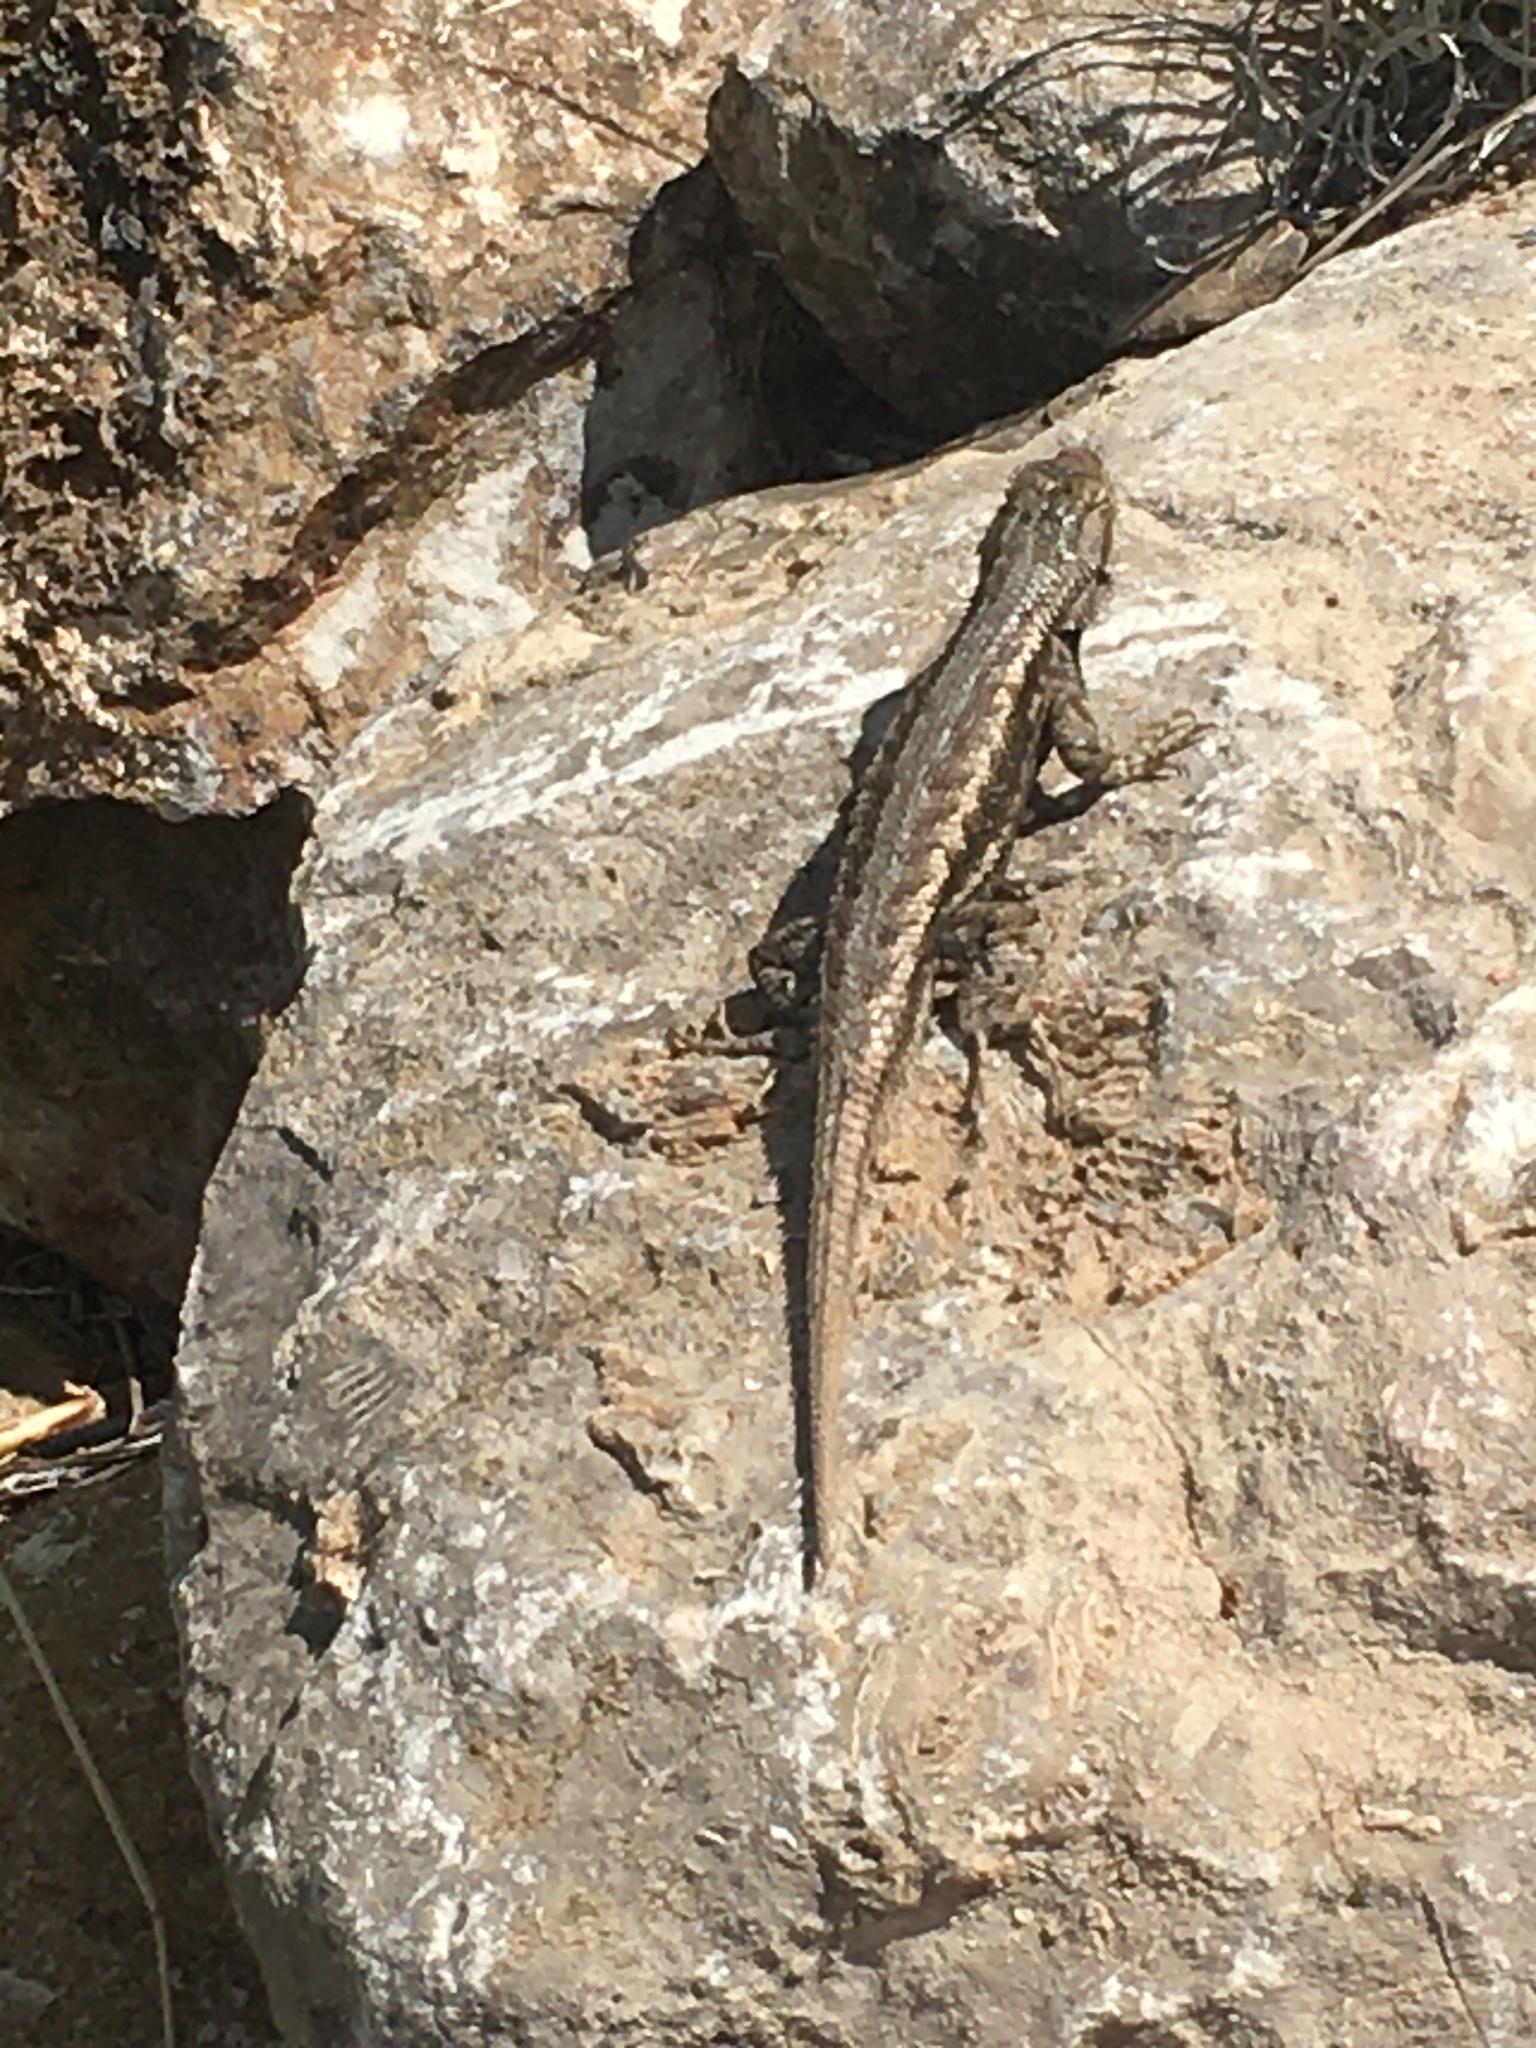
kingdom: Animalia
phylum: Chordata
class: Squamata
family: Phrynosomatidae
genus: Sceloporus
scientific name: Sceloporus
